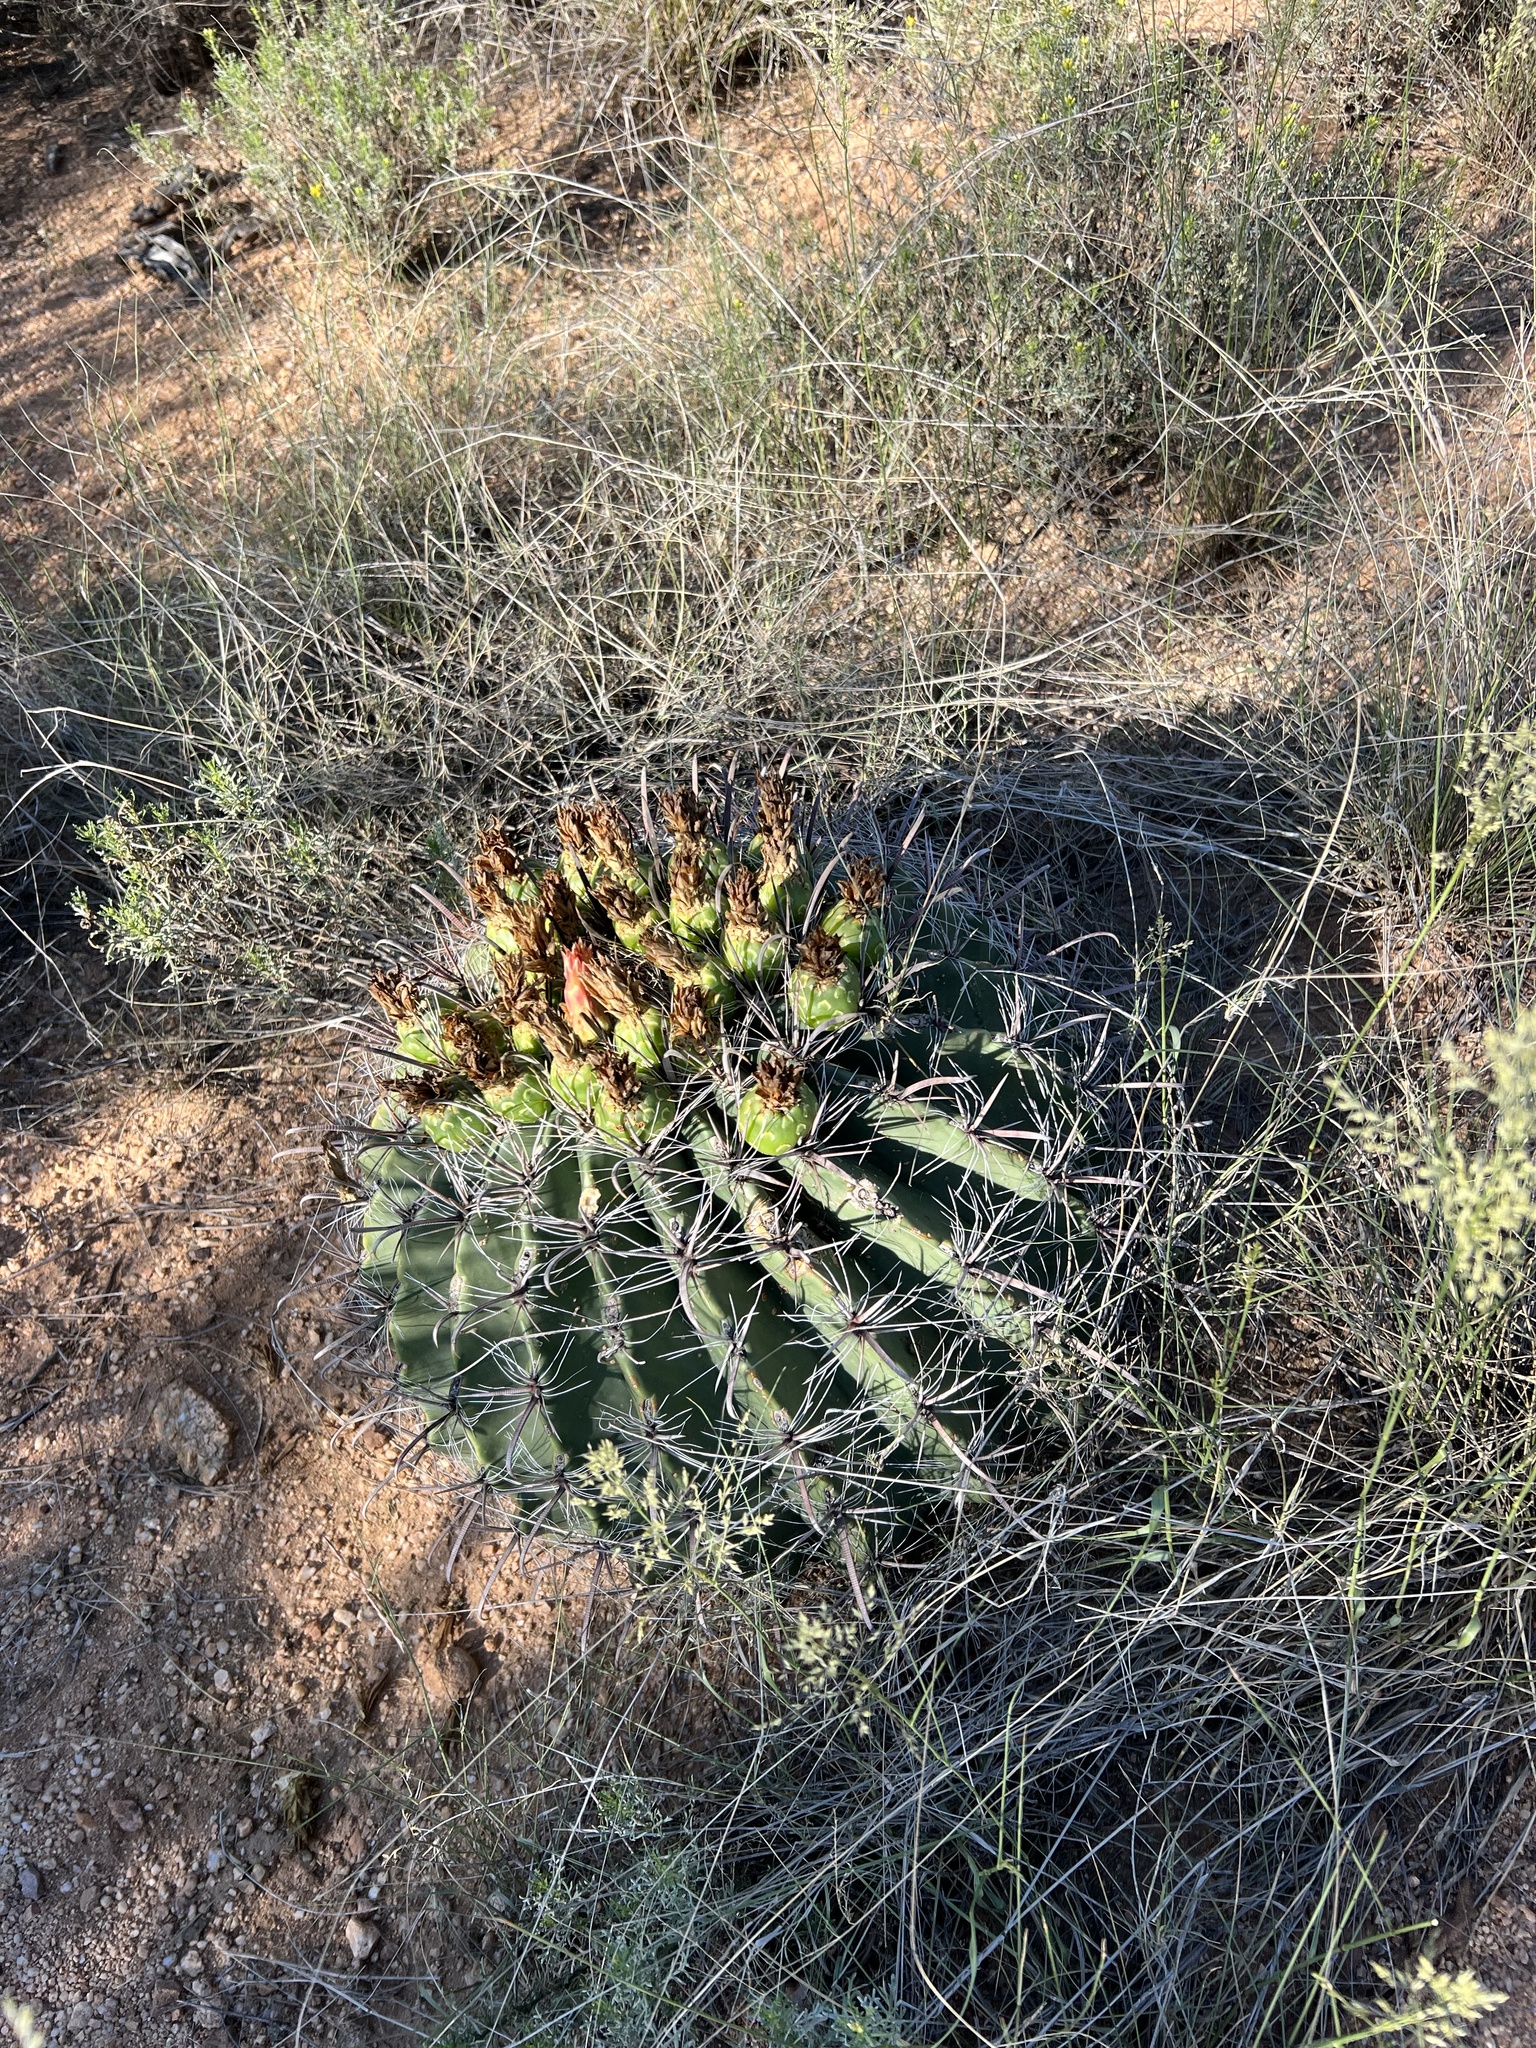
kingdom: Plantae
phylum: Tracheophyta
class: Magnoliopsida
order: Caryophyllales
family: Cactaceae
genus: Ferocactus
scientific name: Ferocactus wislizeni
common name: Candy barrel cactus
